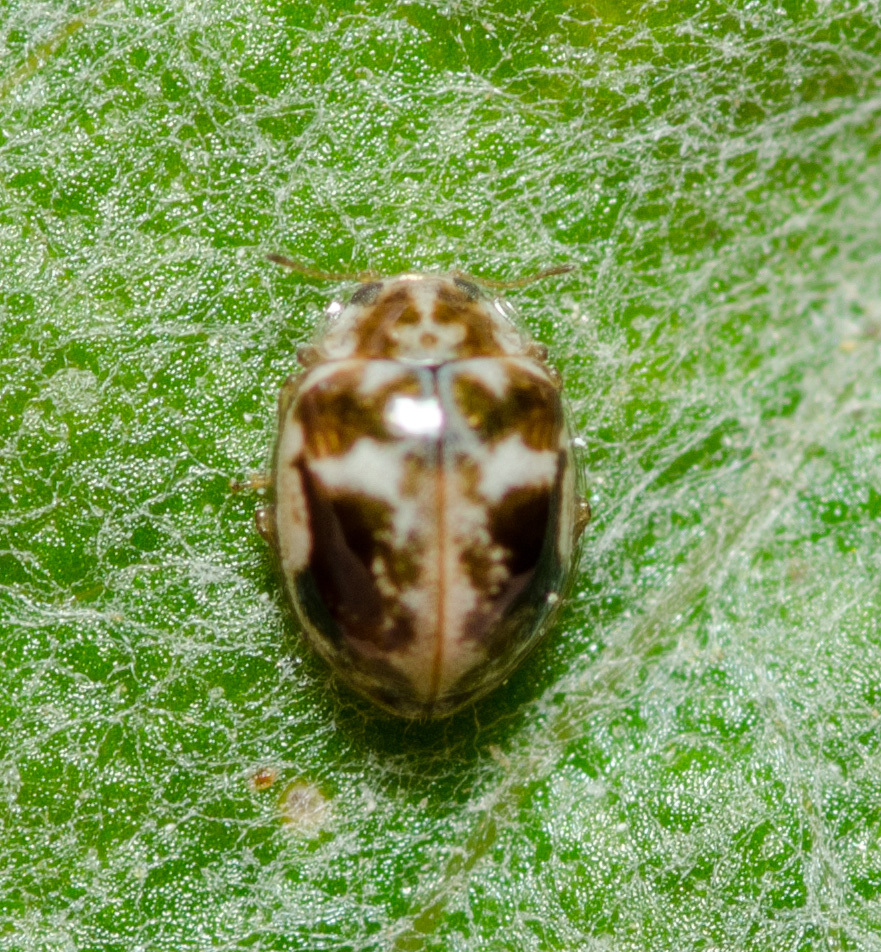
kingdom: Animalia
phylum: Arthropoda
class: Insecta
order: Coleoptera
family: Coccinellidae
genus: Psyllobora
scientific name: Psyllobora renifer
